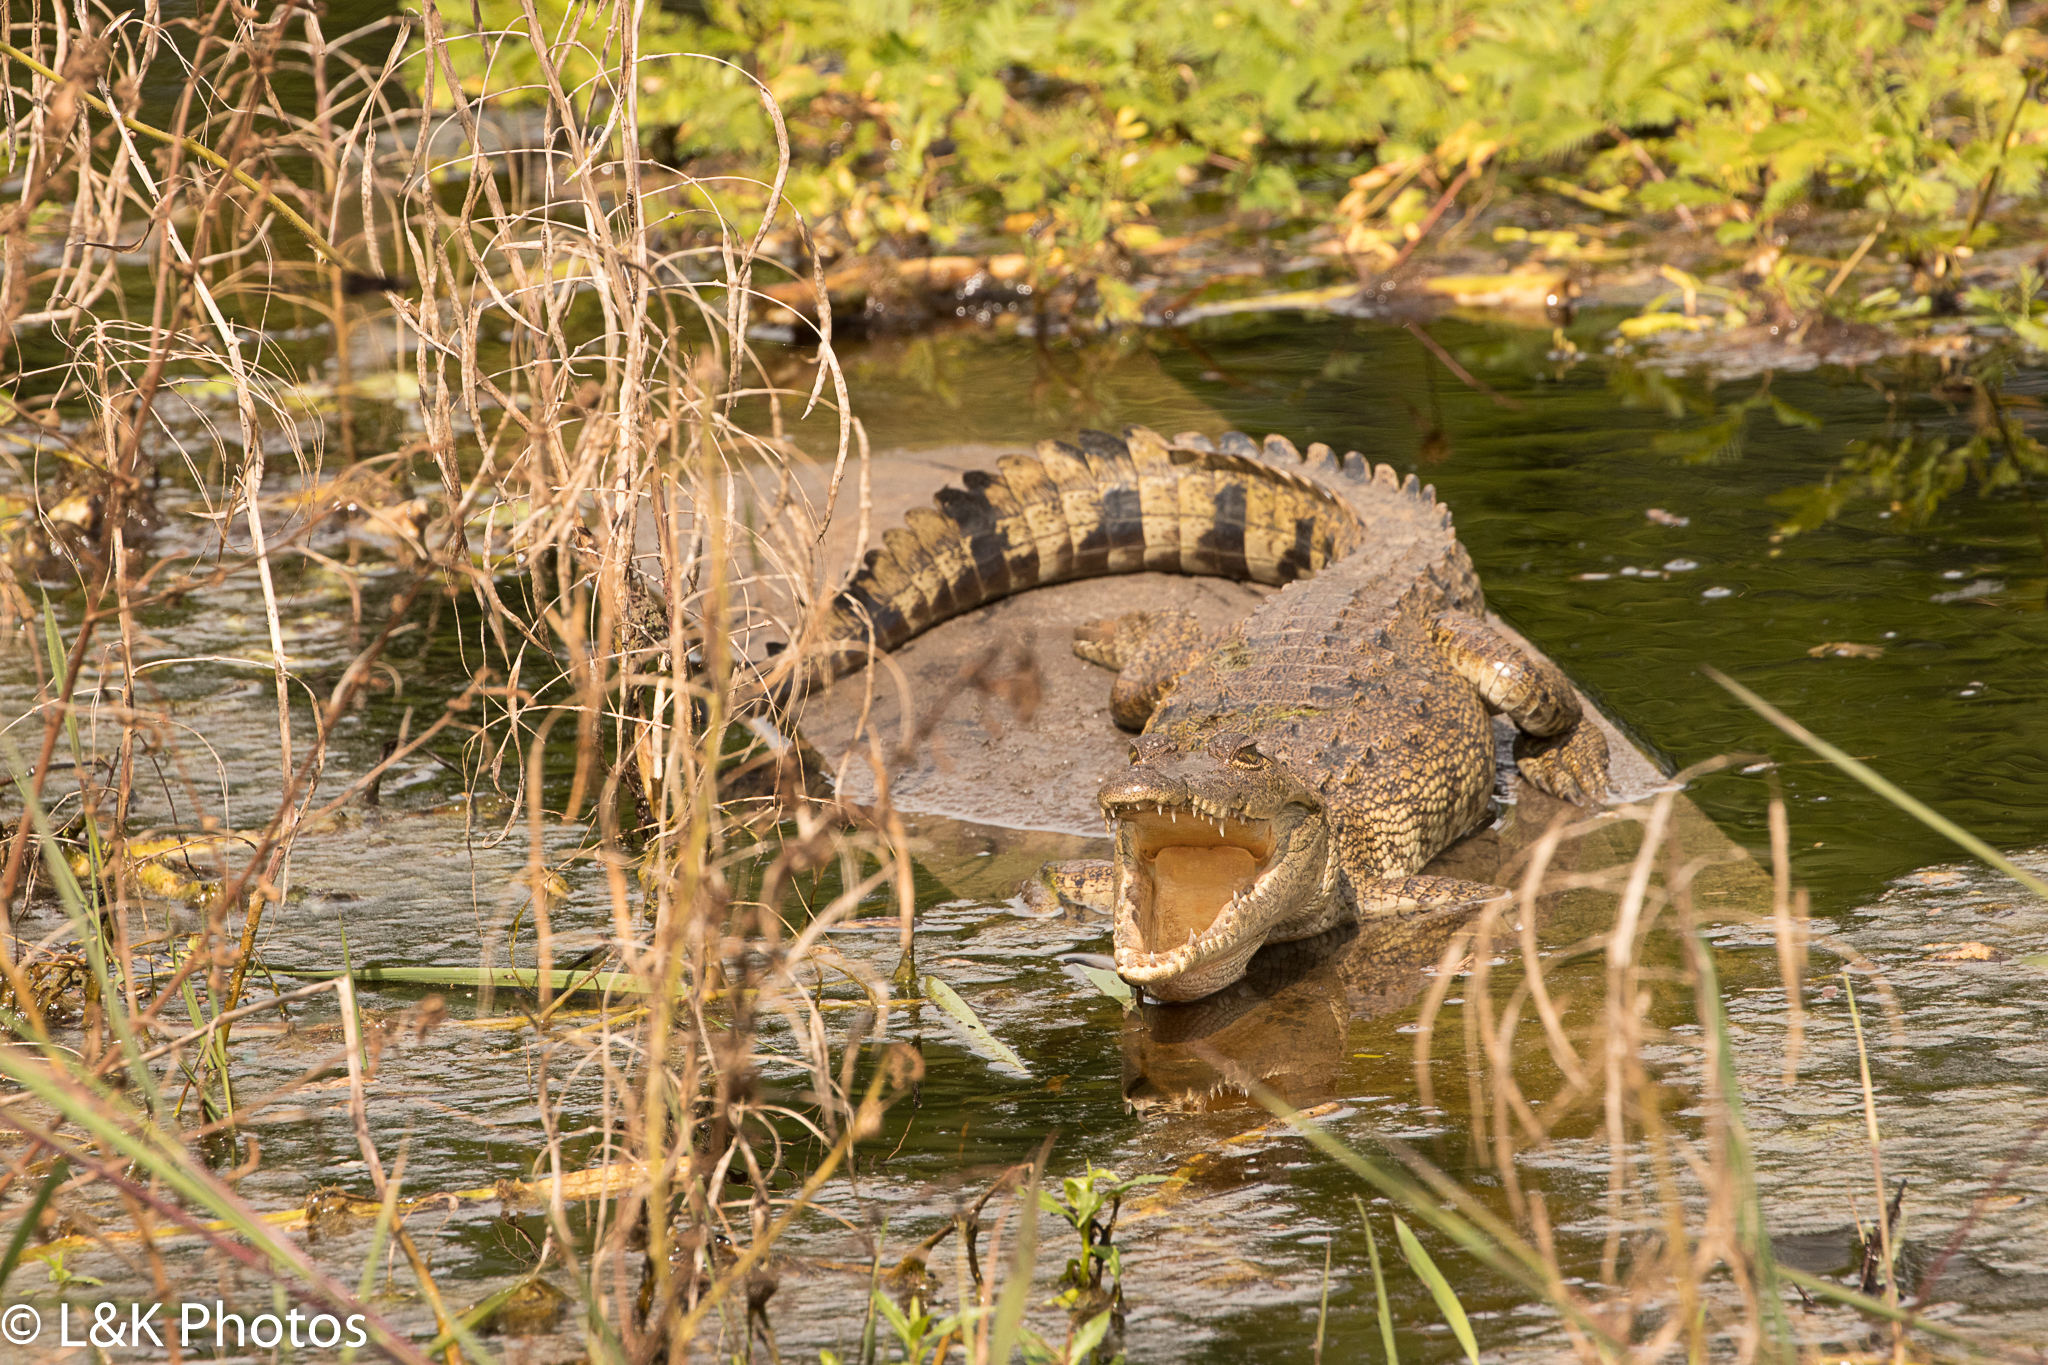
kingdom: Animalia
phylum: Chordata
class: Crocodylia
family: Crocodylidae
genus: Crocodylus
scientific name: Crocodylus moreletii
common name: Morelet's crocodile
